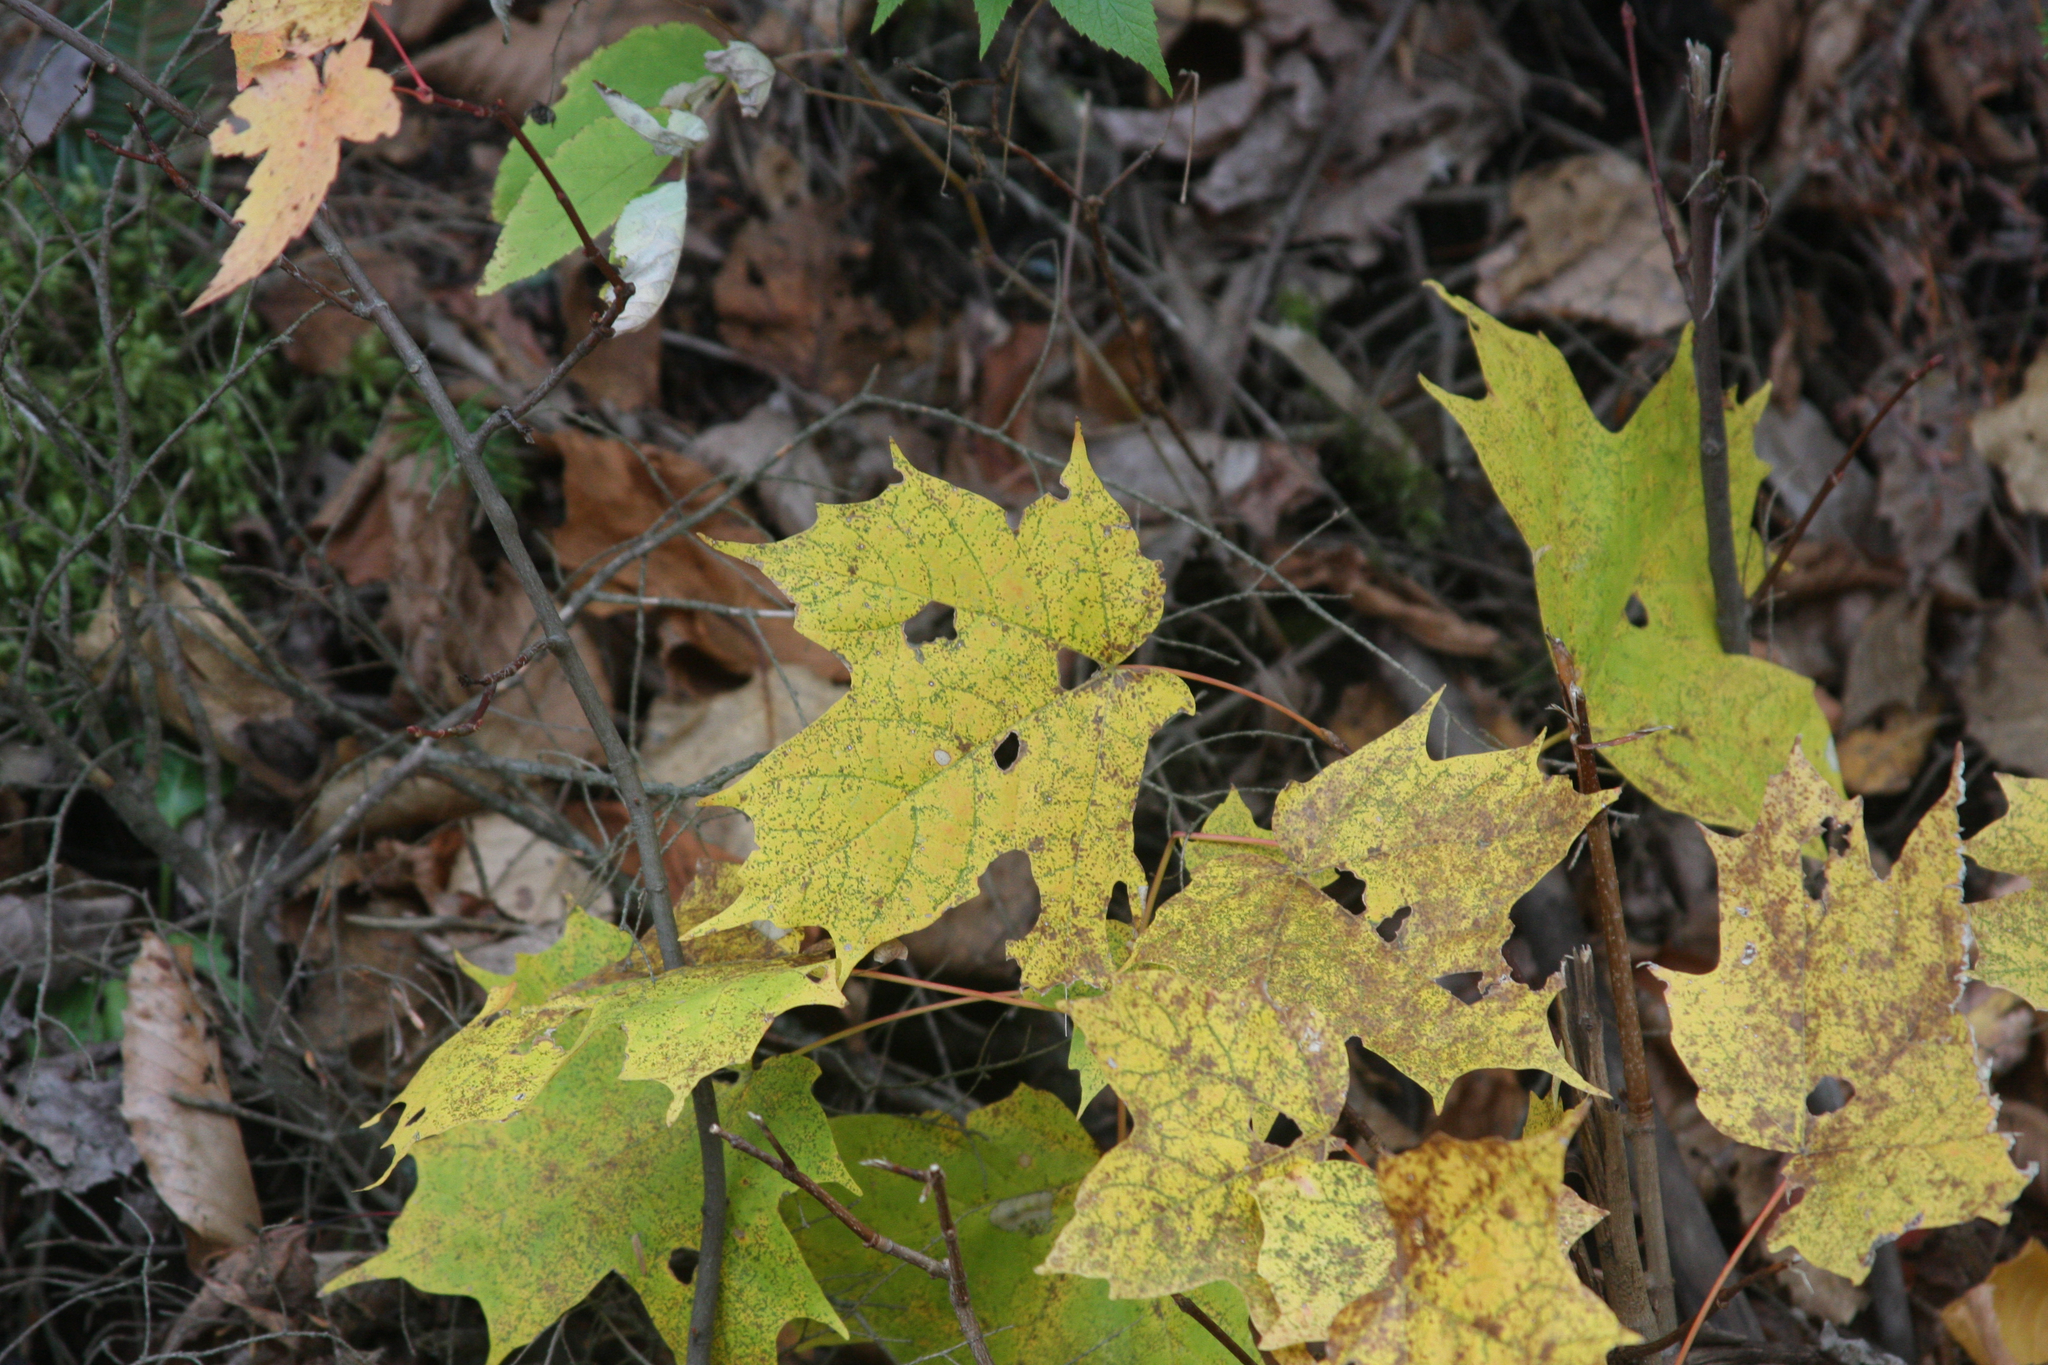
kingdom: Plantae
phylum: Tracheophyta
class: Magnoliopsida
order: Sapindales
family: Sapindaceae
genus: Acer
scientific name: Acer saccharum
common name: Sugar maple
